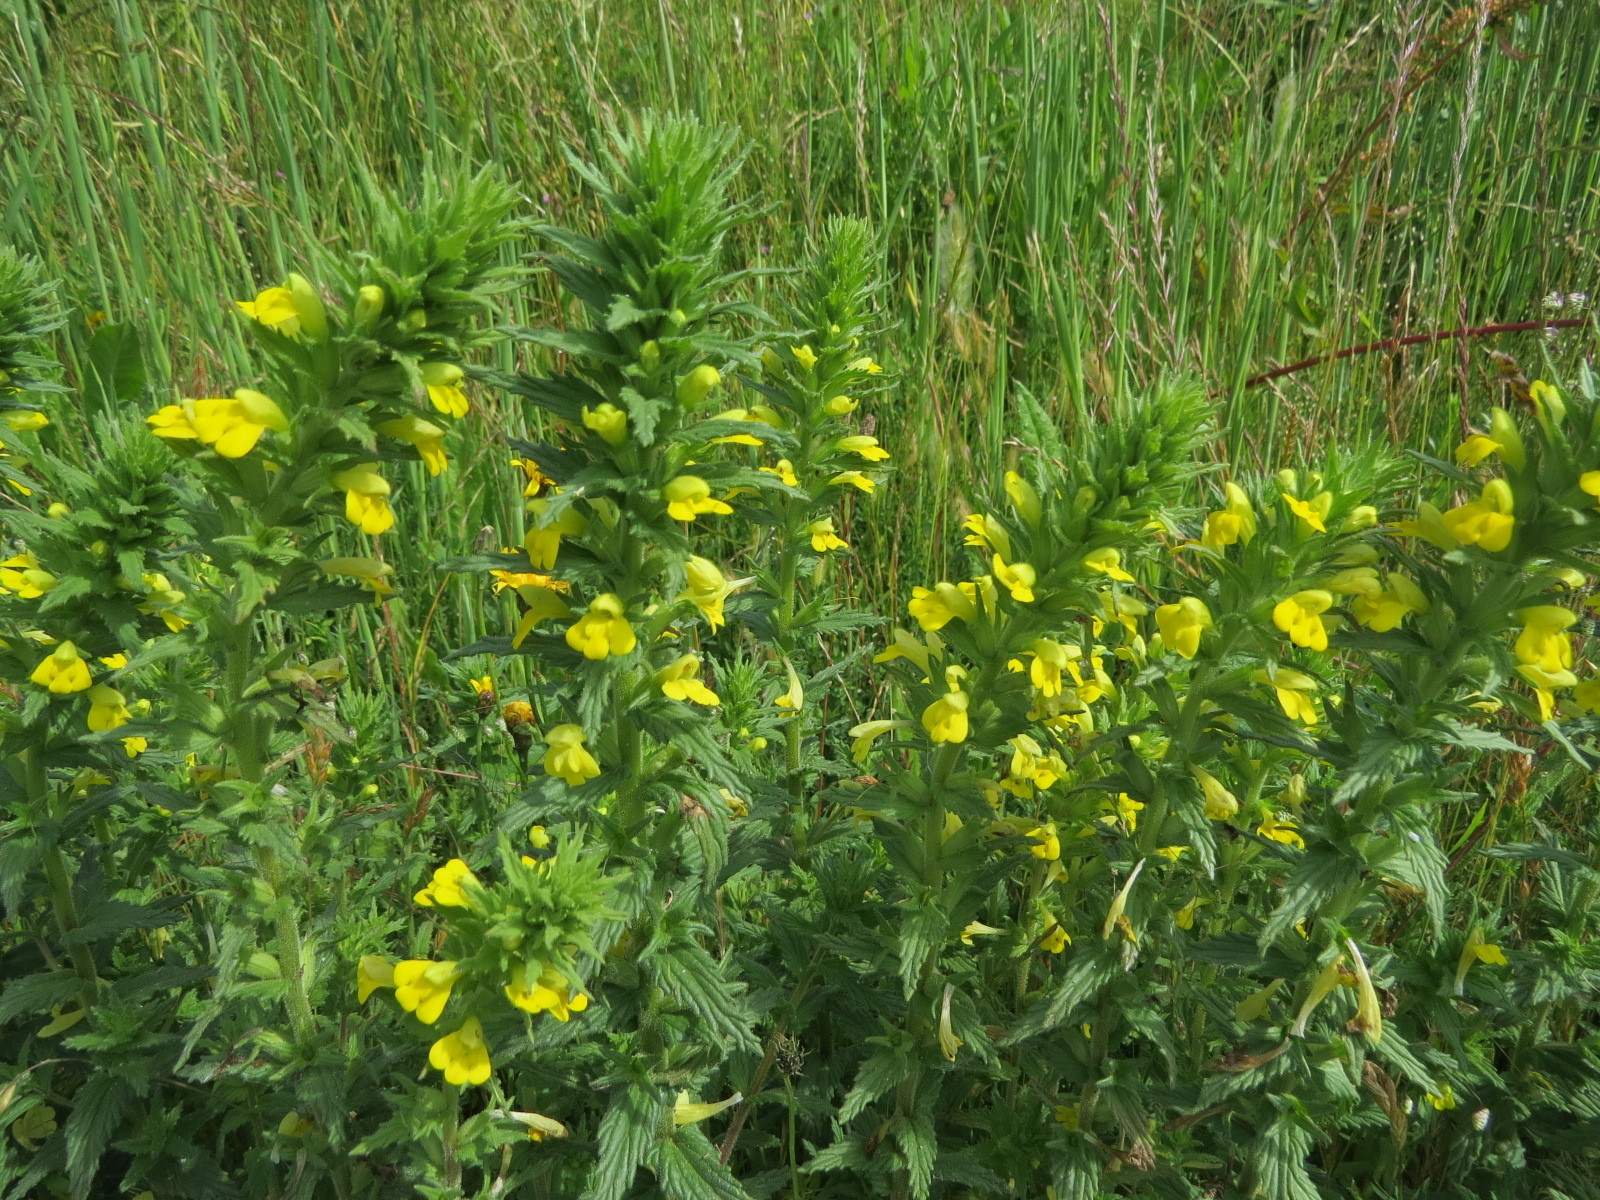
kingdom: Plantae
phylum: Tracheophyta
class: Magnoliopsida
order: Lamiales
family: Orobanchaceae
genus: Bellardia
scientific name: Bellardia viscosa
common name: Sticky parentucellia
